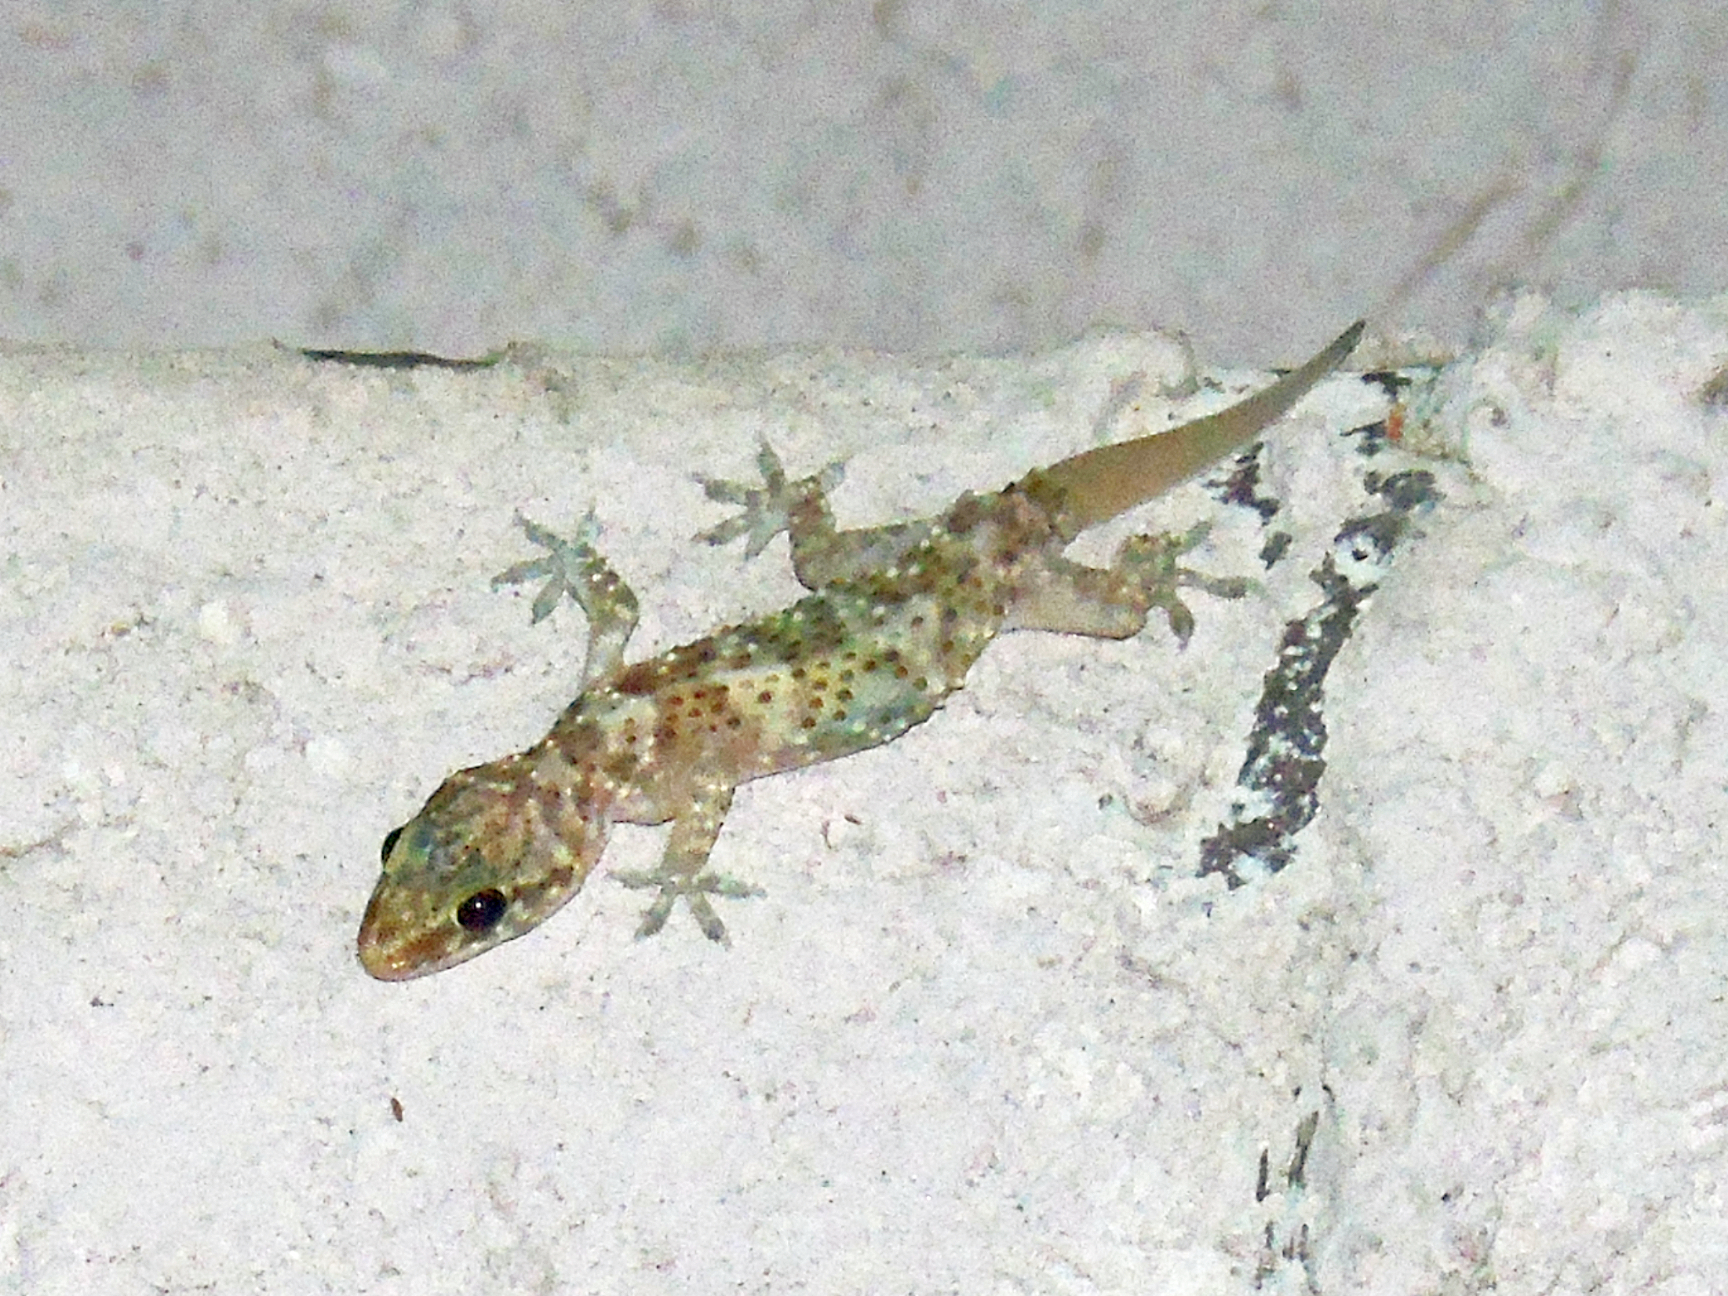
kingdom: Animalia
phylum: Chordata
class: Squamata
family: Gekkonidae
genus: Hemidactylus
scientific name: Hemidactylus turcicus
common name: Turkish gecko
